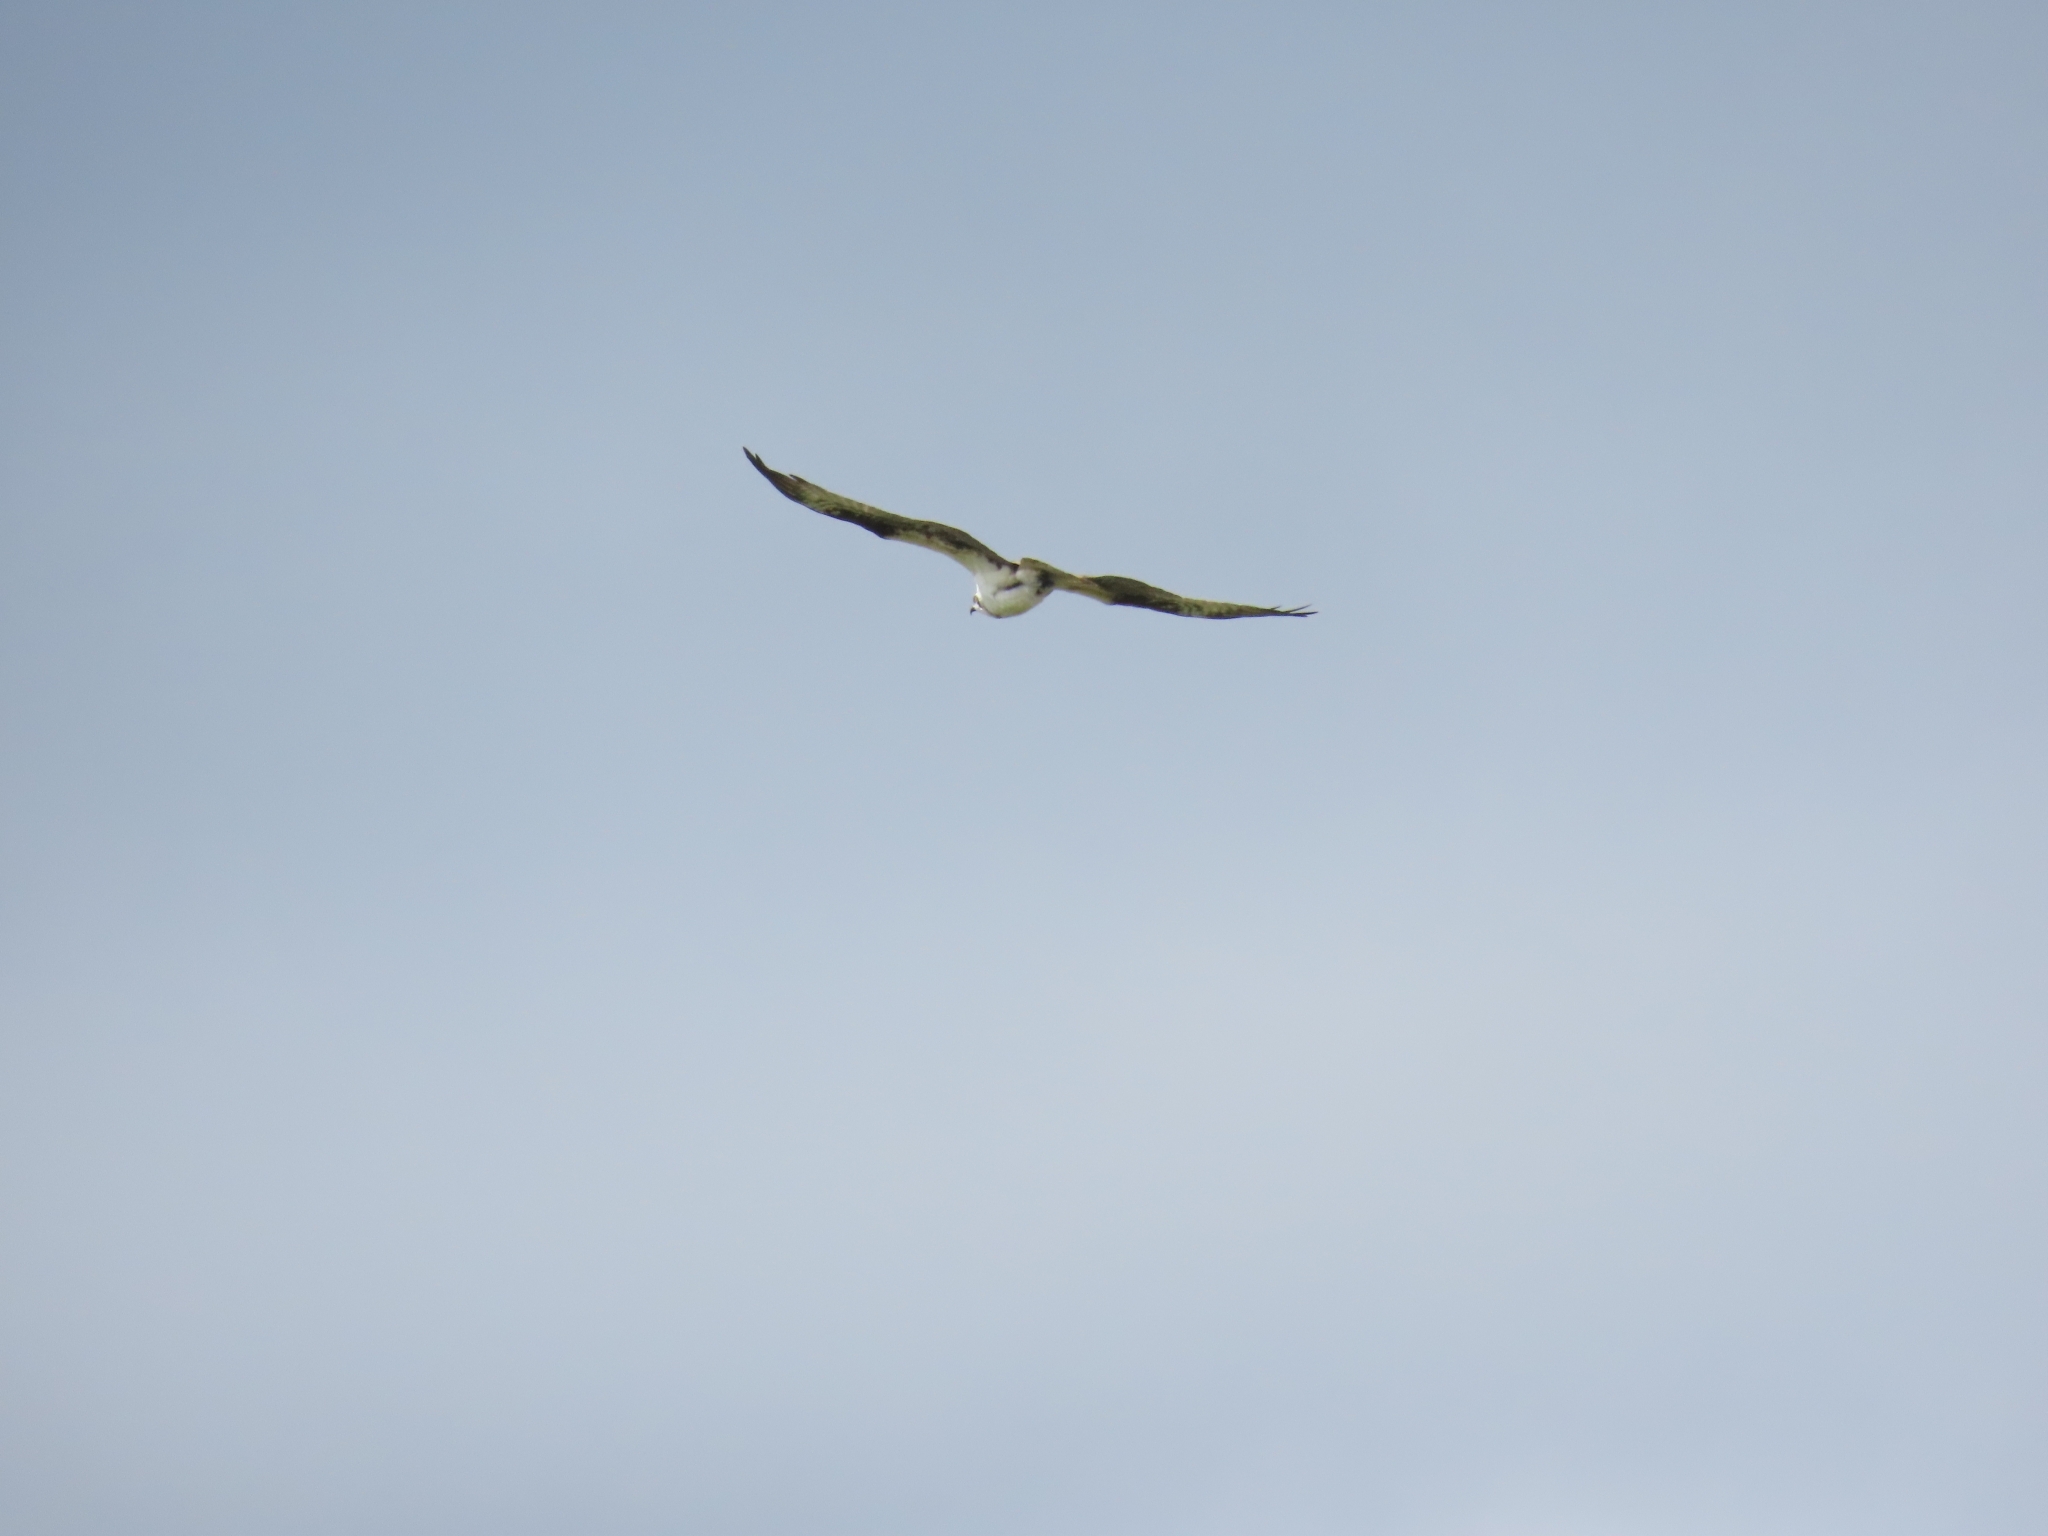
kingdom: Animalia
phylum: Chordata
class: Aves
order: Accipitriformes
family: Pandionidae
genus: Pandion
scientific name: Pandion haliaetus
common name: Osprey
